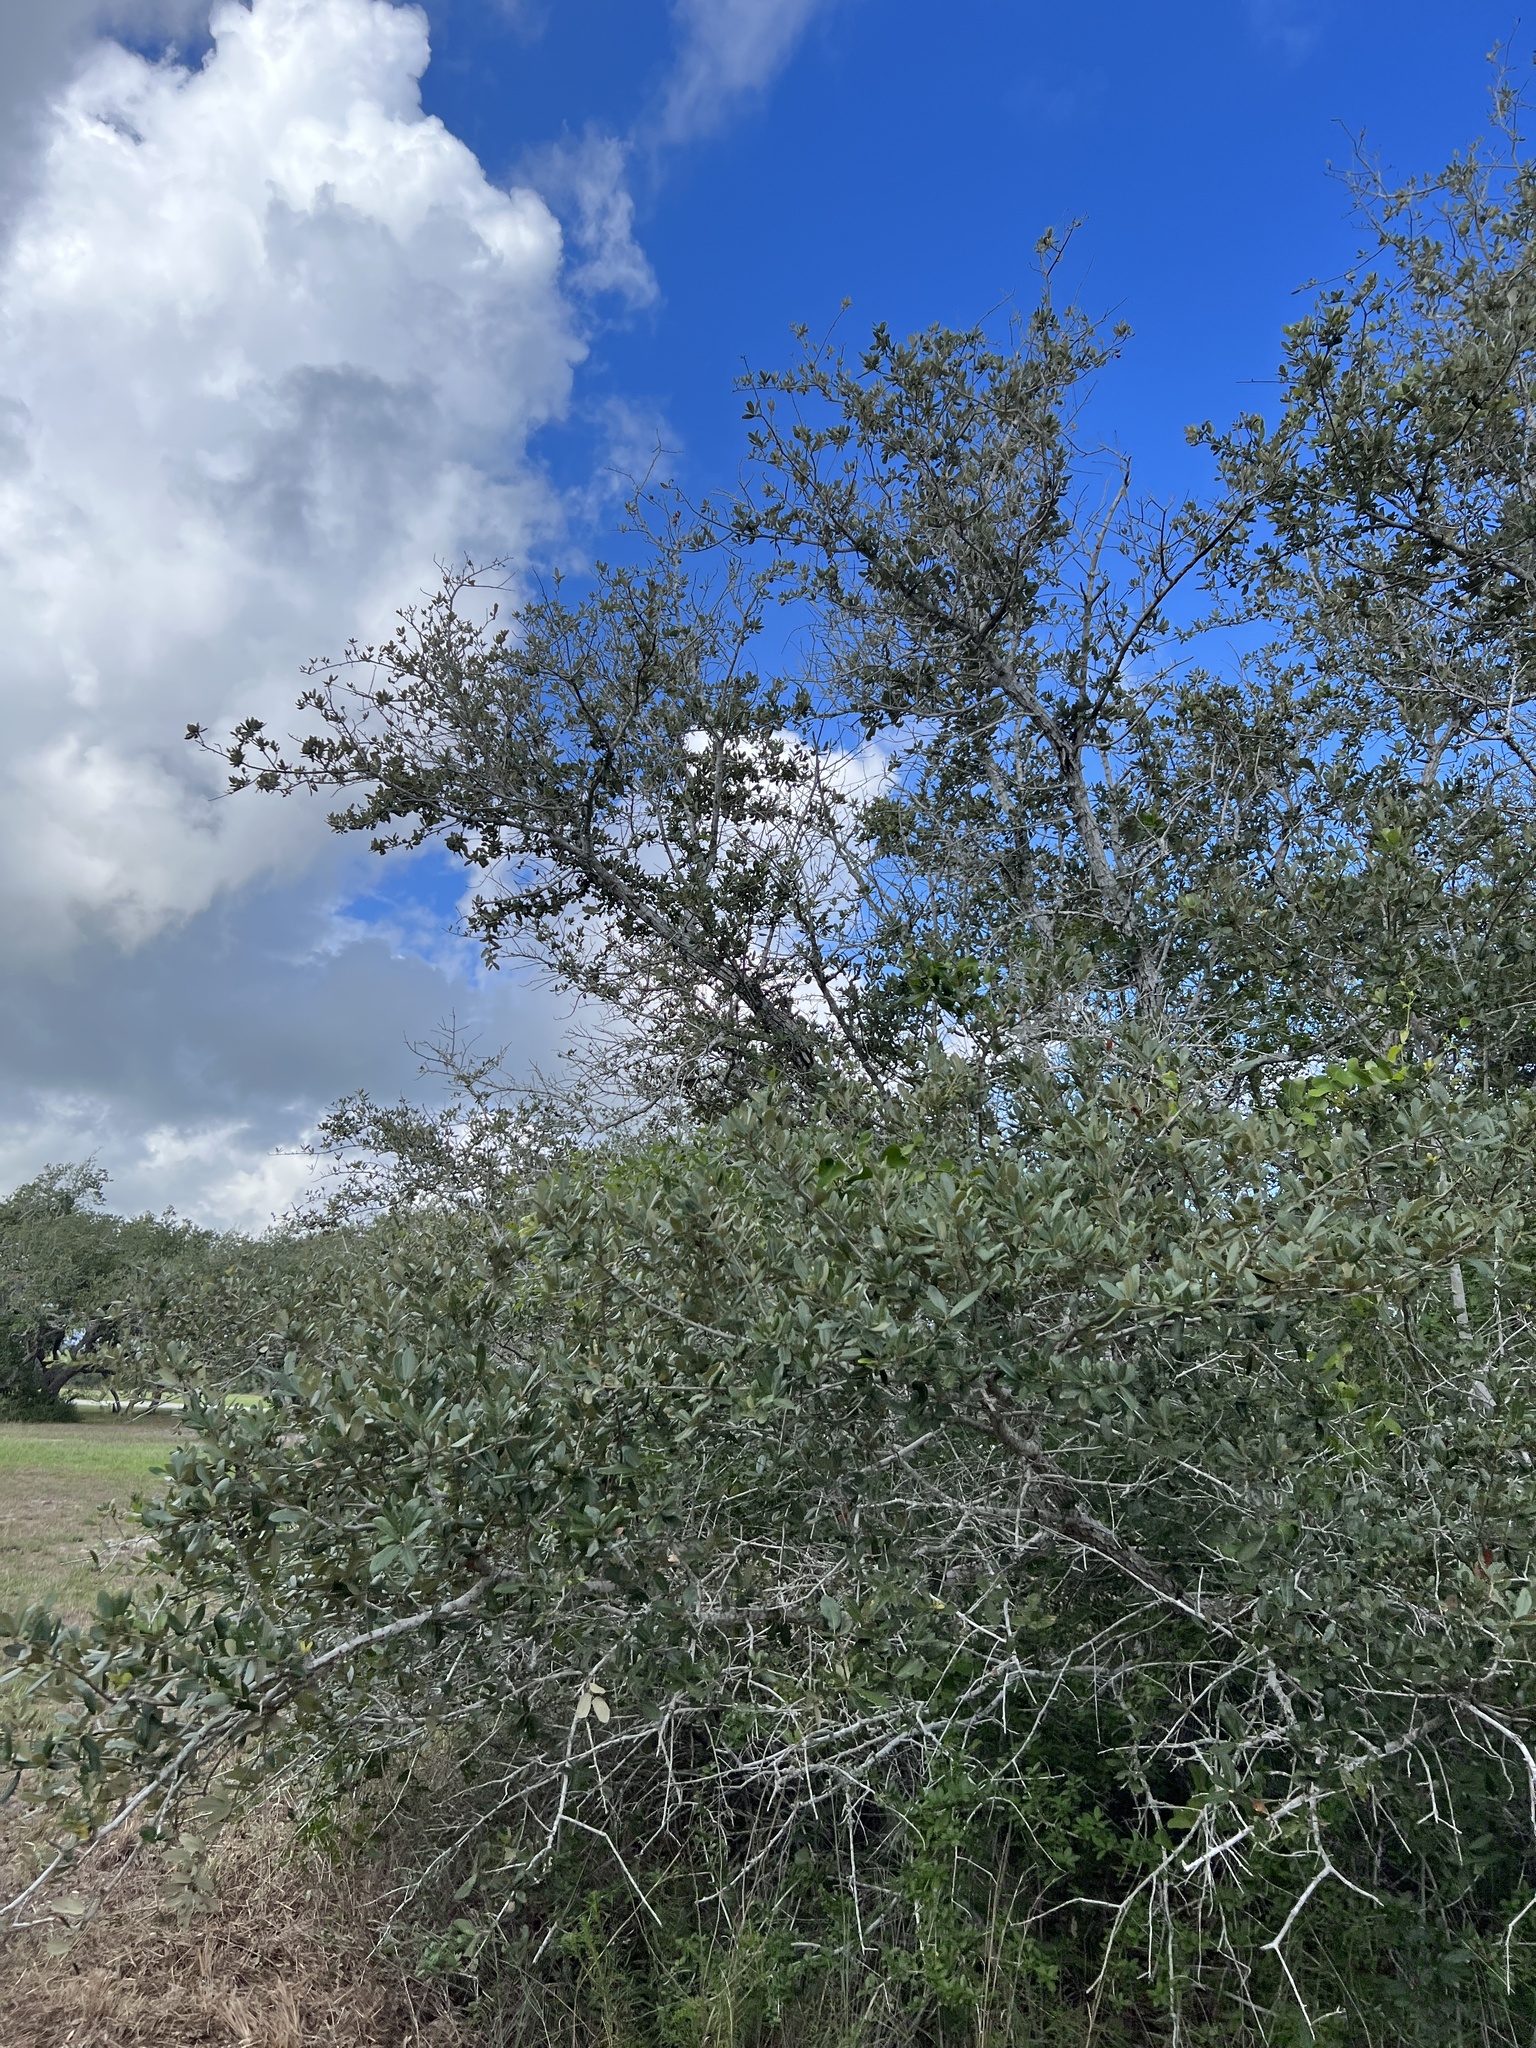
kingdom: Plantae
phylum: Tracheophyta
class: Magnoliopsida
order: Fagales
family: Fagaceae
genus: Quercus
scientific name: Quercus virginiana
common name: Southern live oak
